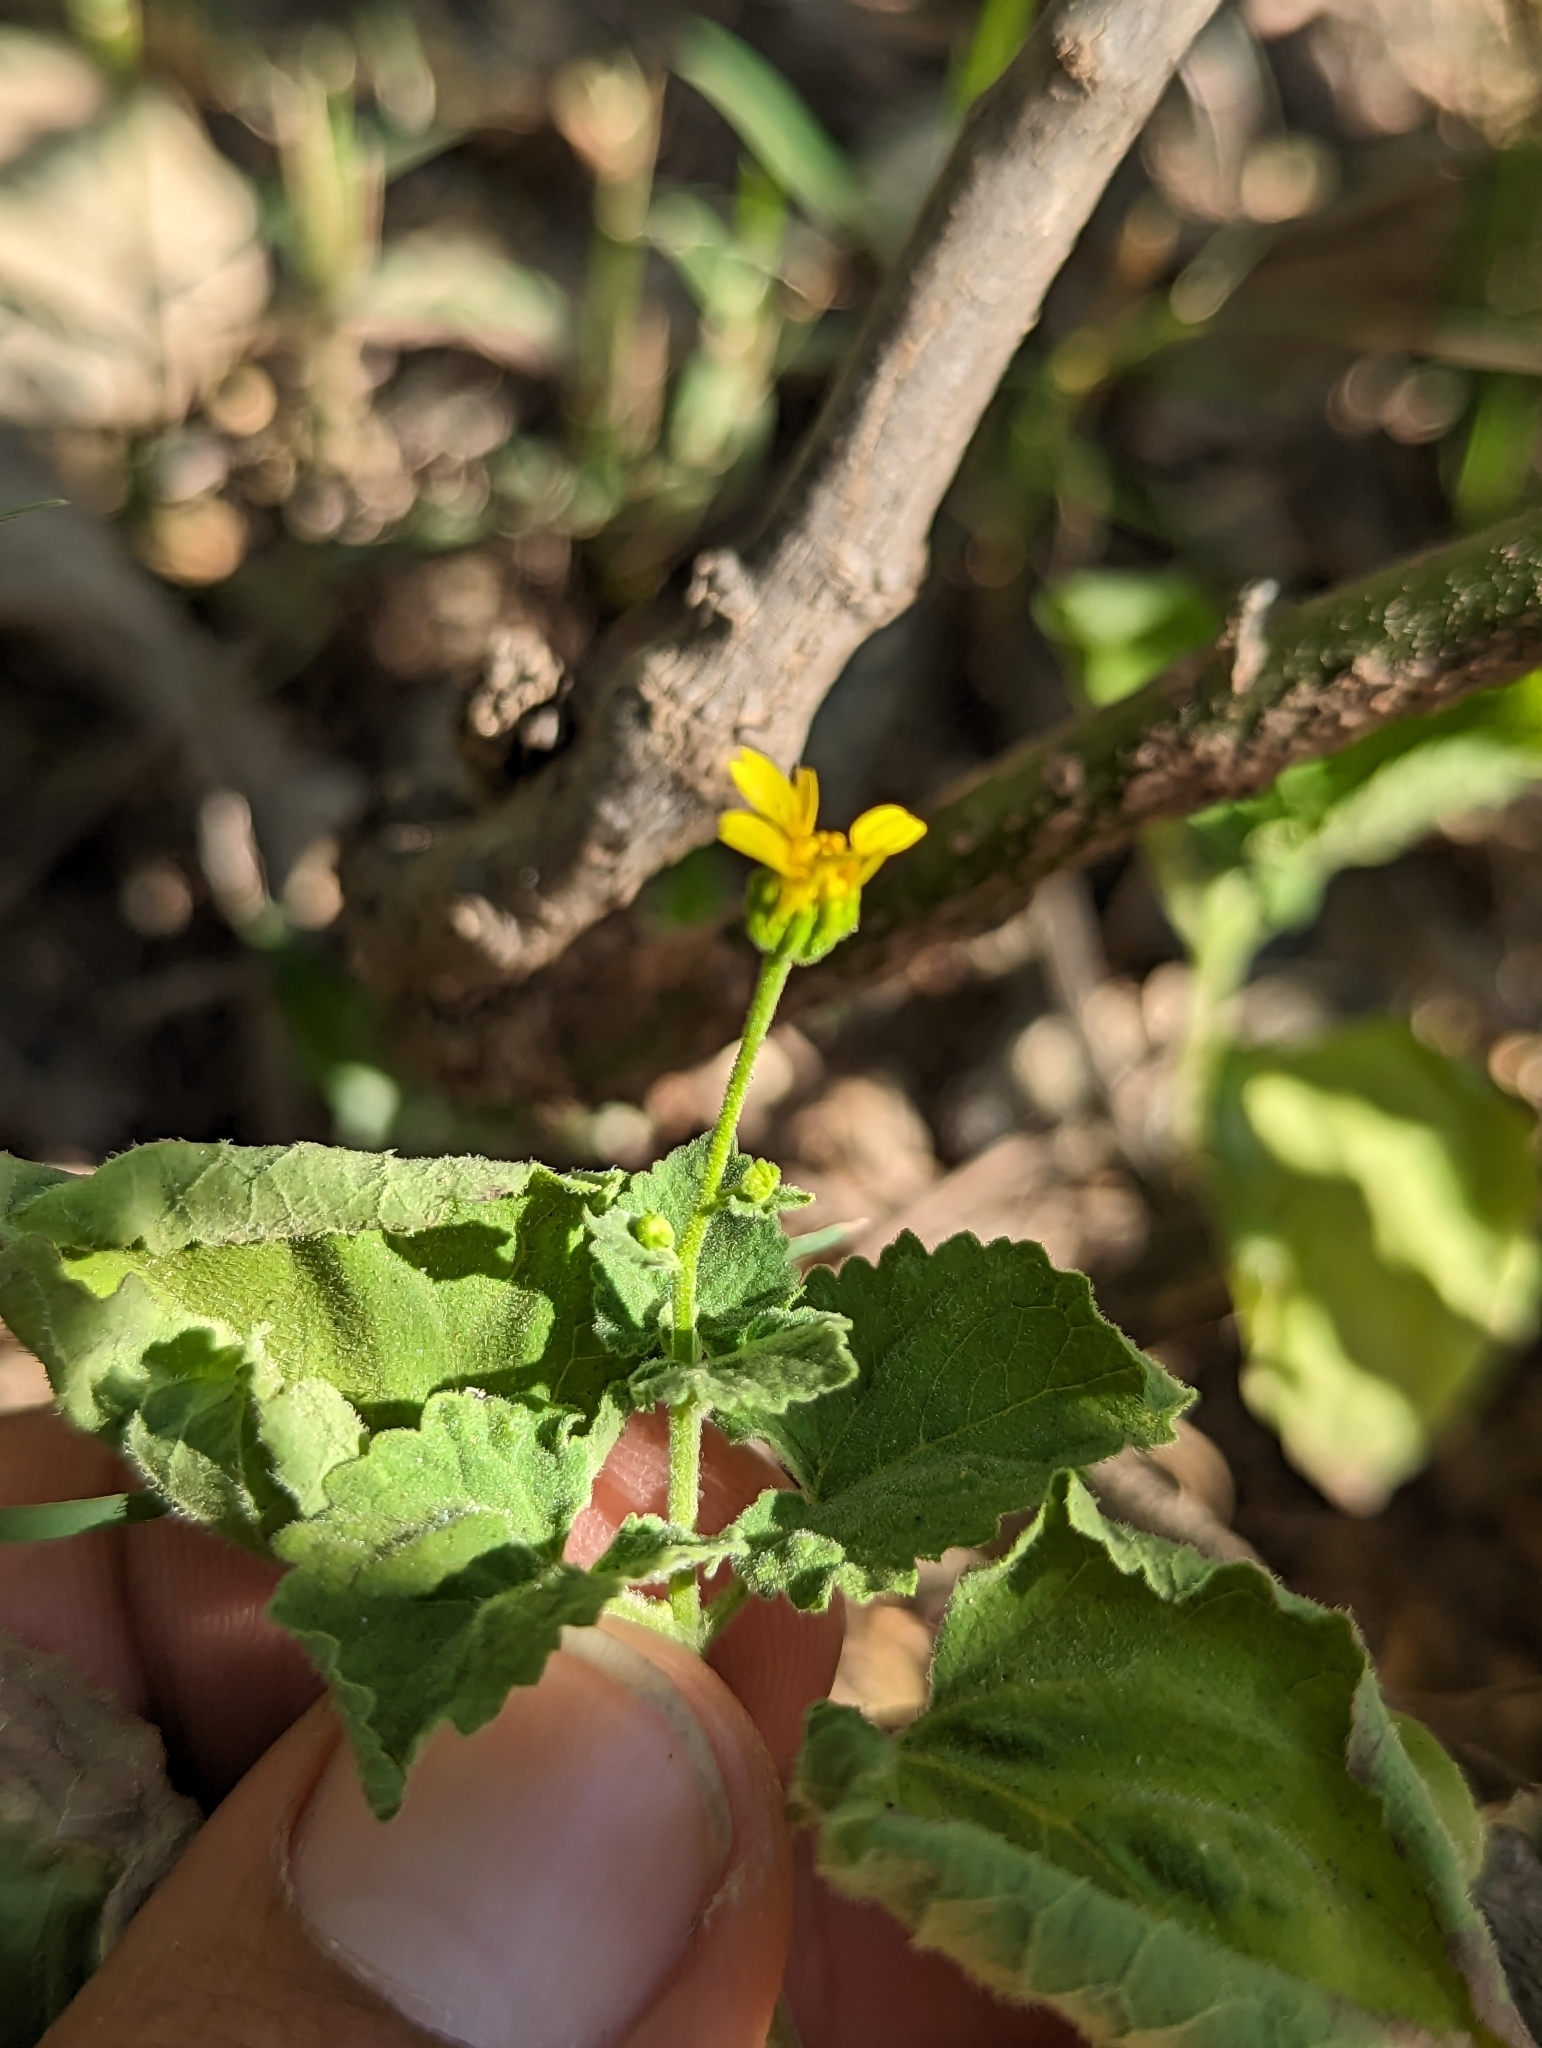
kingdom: Plantae
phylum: Tracheophyta
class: Magnoliopsida
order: Asterales
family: Asteraceae
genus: Perityle
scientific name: Perityle cuneata
